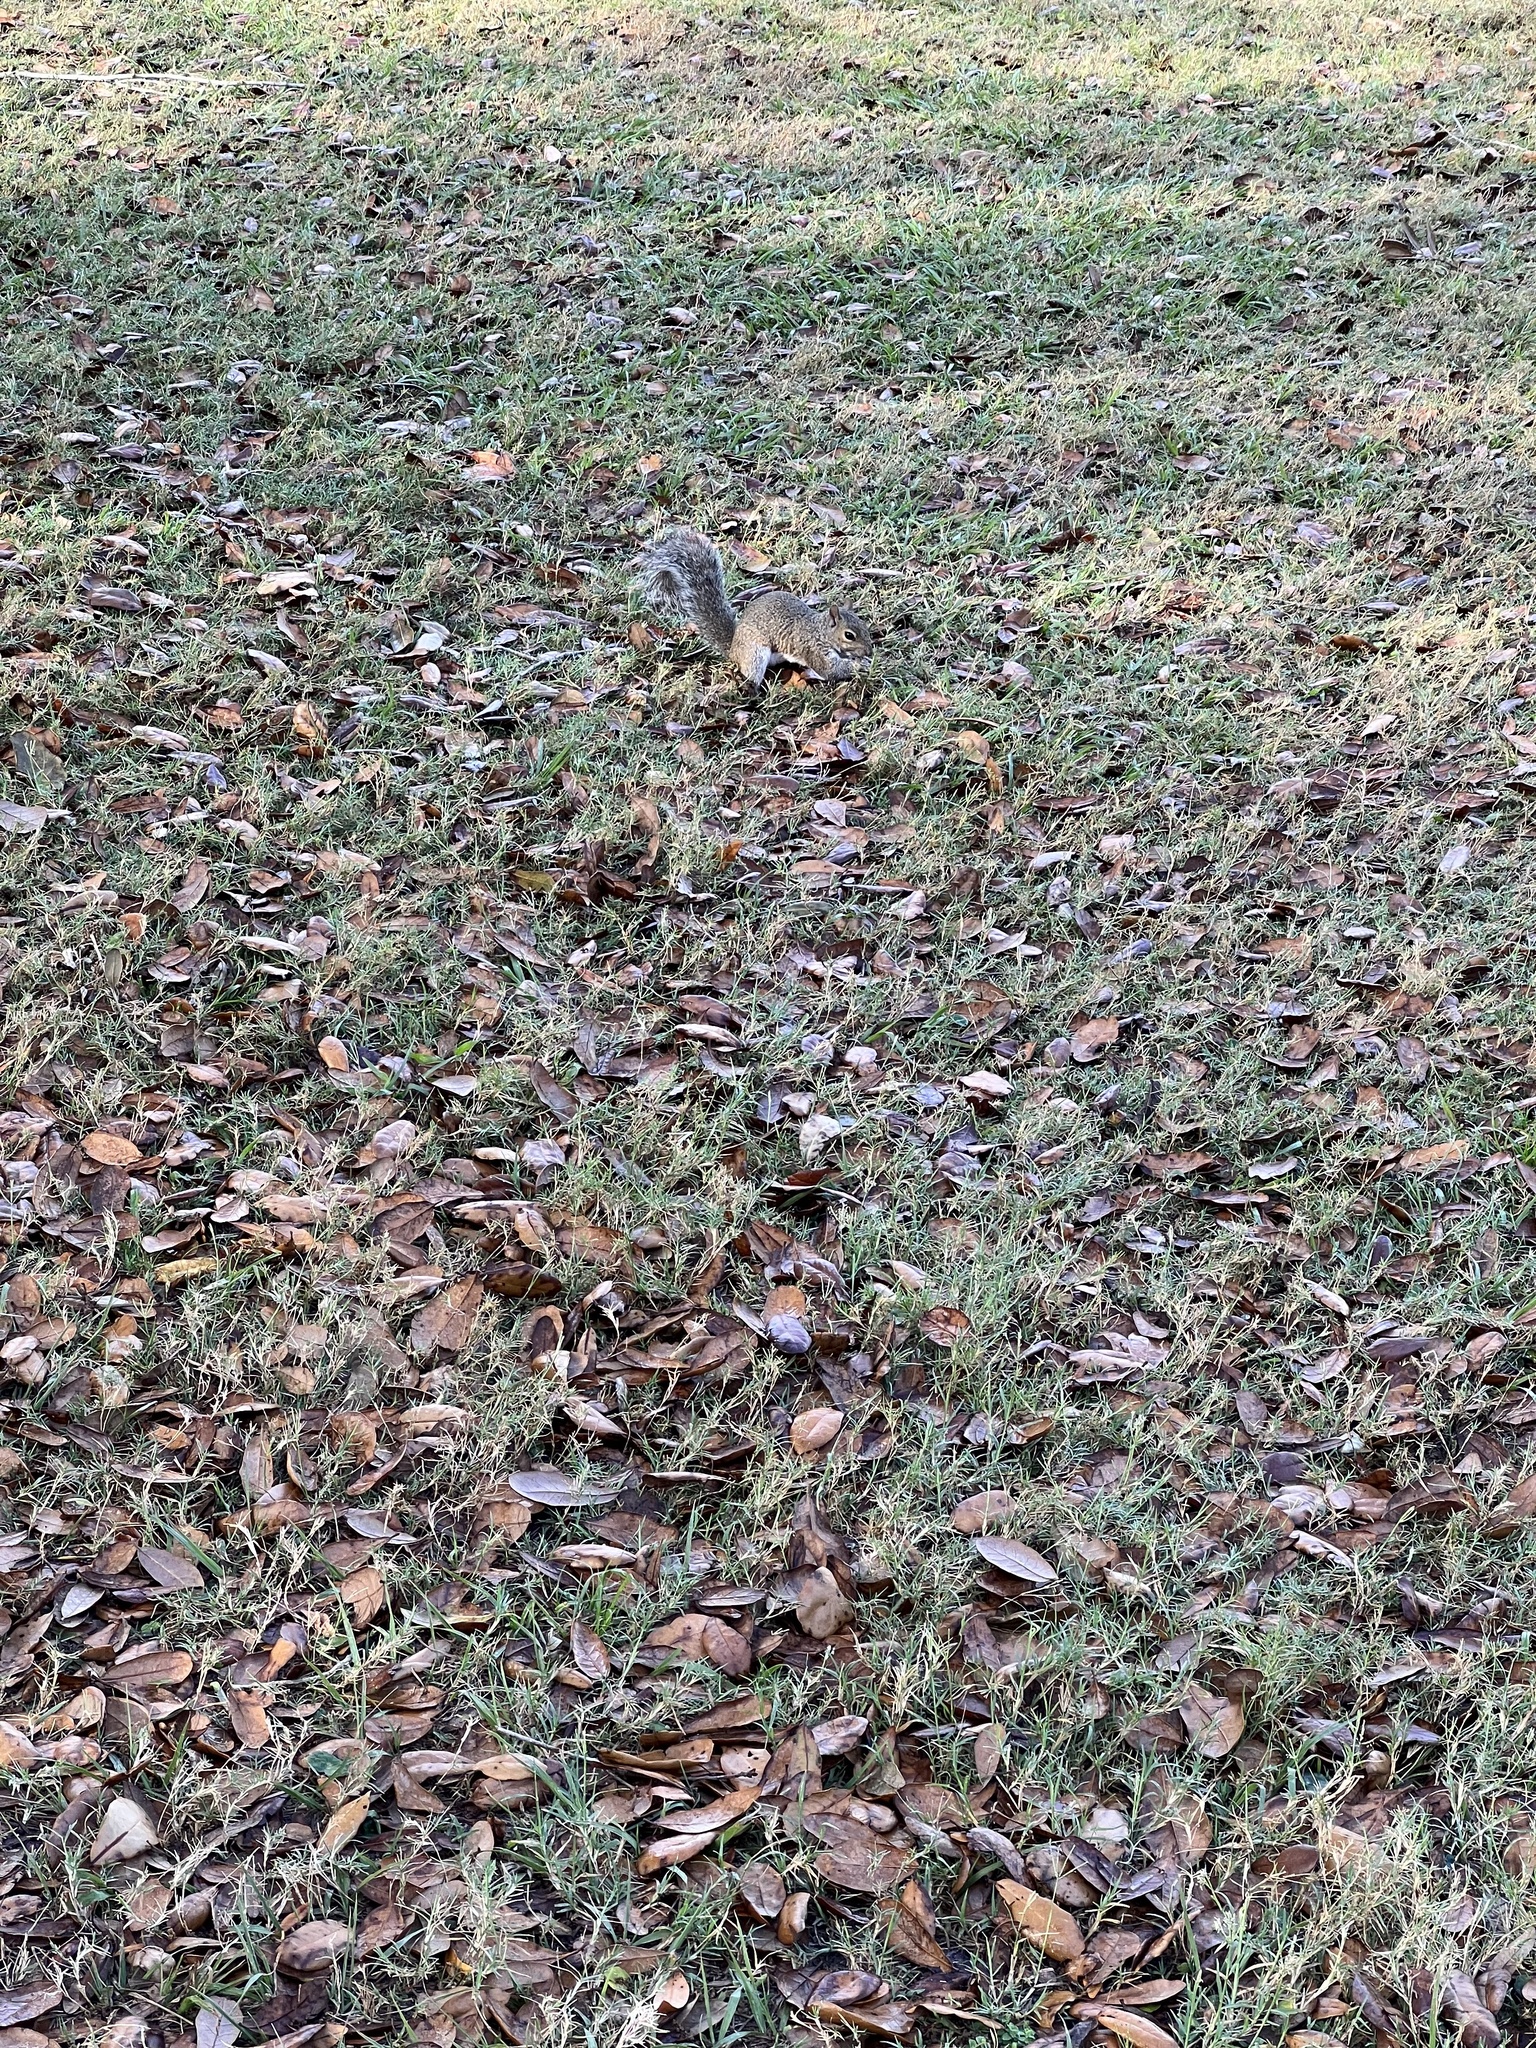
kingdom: Animalia
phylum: Chordata
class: Mammalia
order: Rodentia
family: Sciuridae
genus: Sciurus
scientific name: Sciurus carolinensis
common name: Eastern gray squirrel
